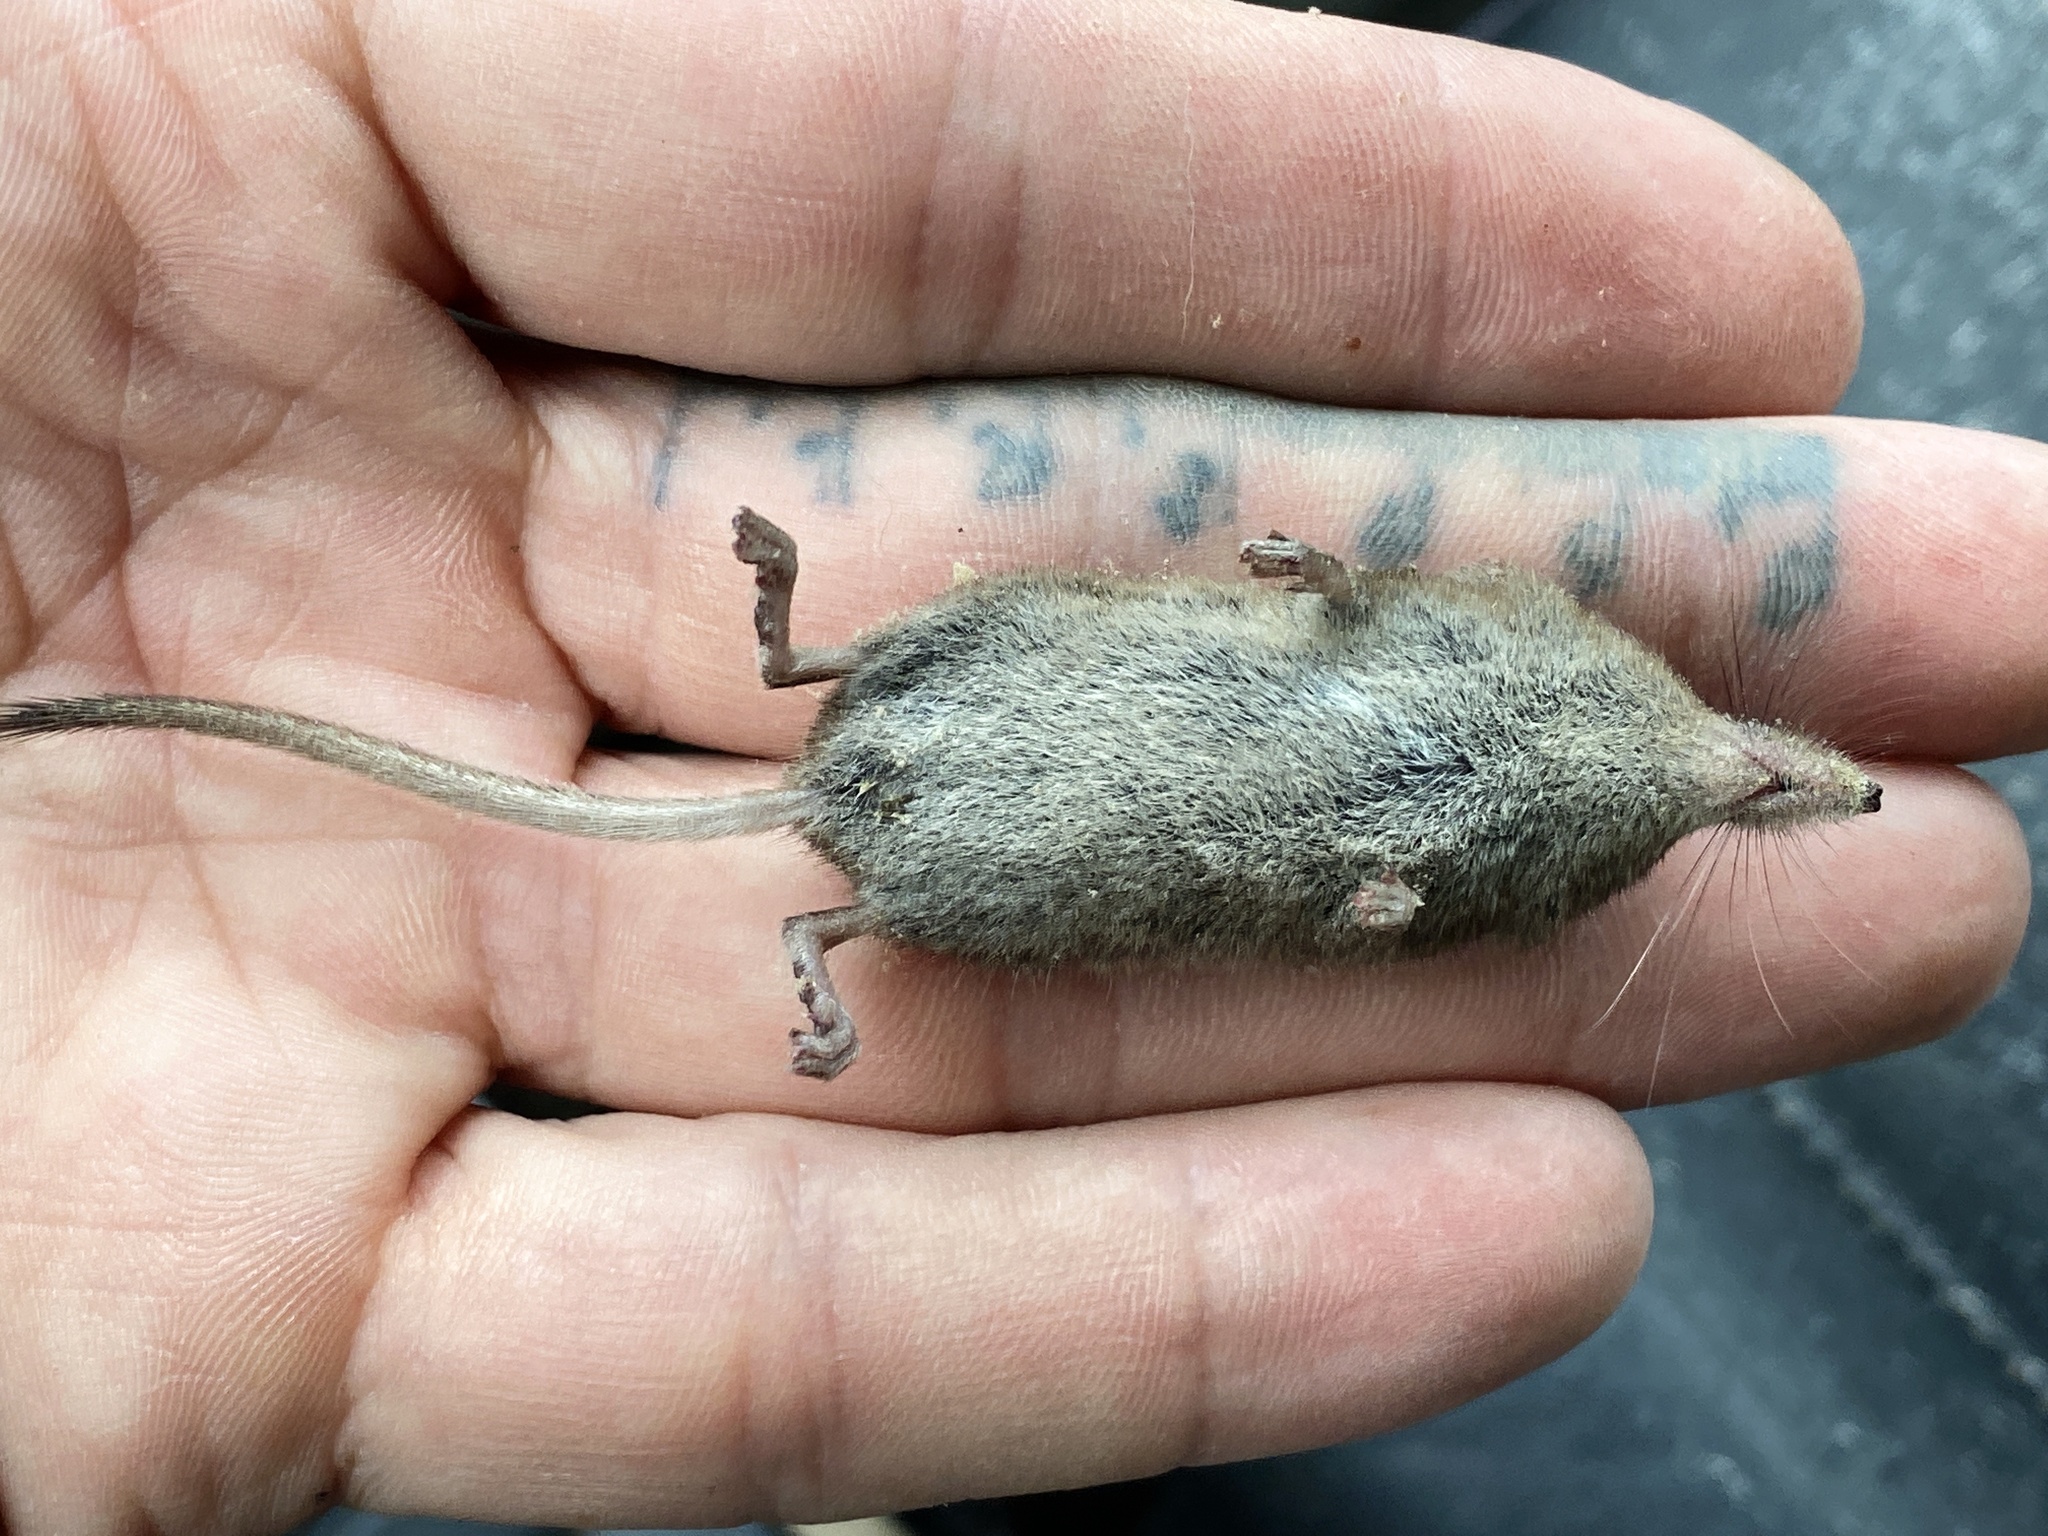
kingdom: Animalia
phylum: Chordata
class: Mammalia
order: Soricomorpha
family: Soricidae
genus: Sorex
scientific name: Sorex cinereus
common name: Cinereus shrew
